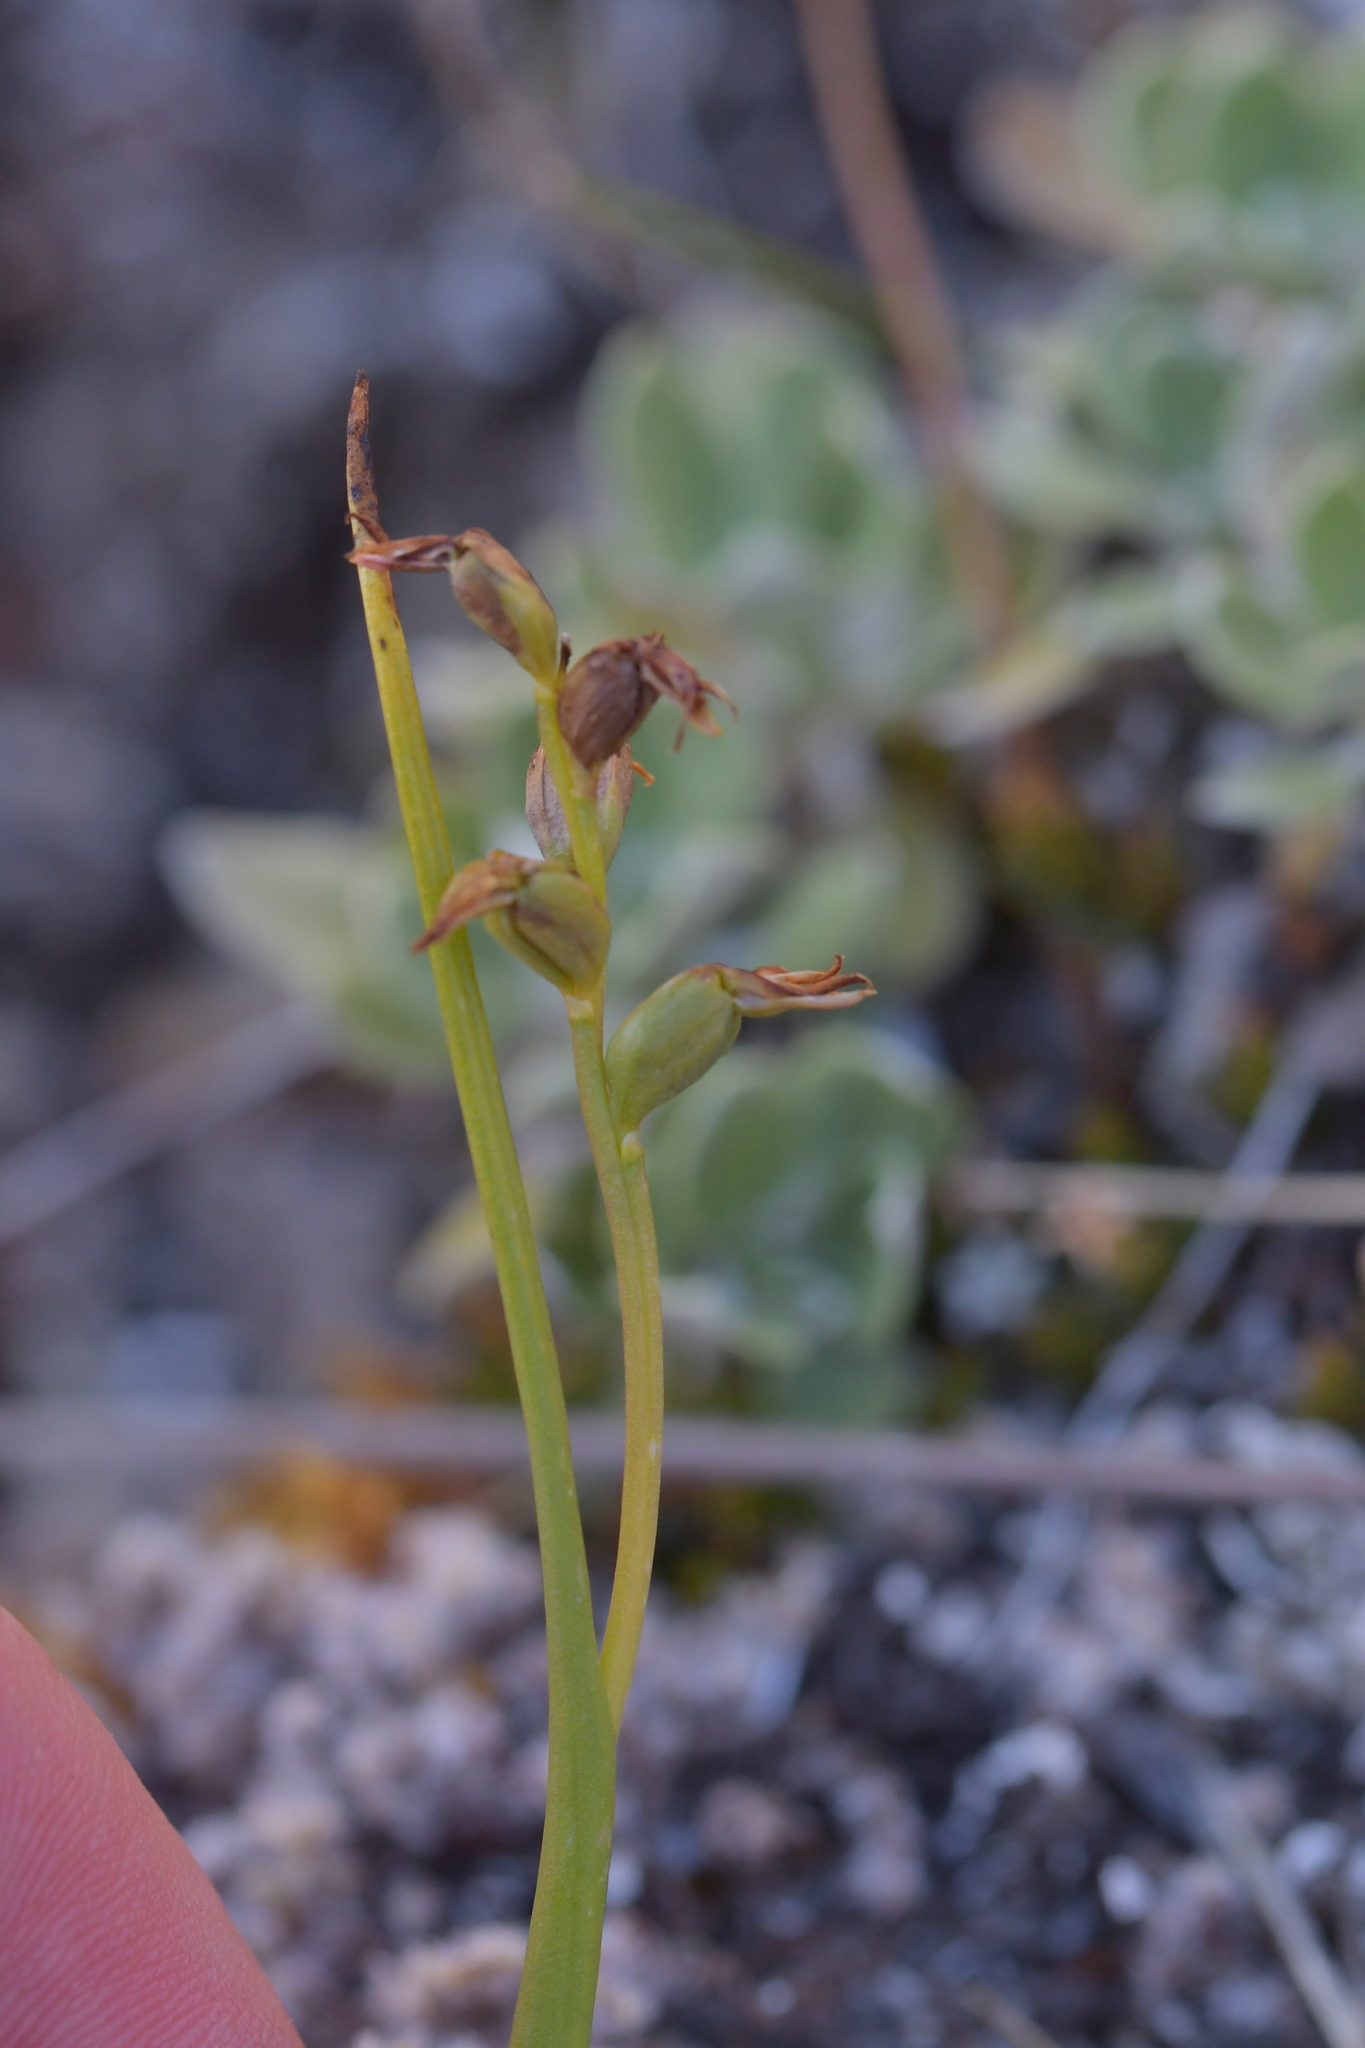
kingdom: Plantae
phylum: Tracheophyta
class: Liliopsida
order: Asparagales
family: Orchidaceae
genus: Prasophyllum
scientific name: Prasophyllum colensoi
